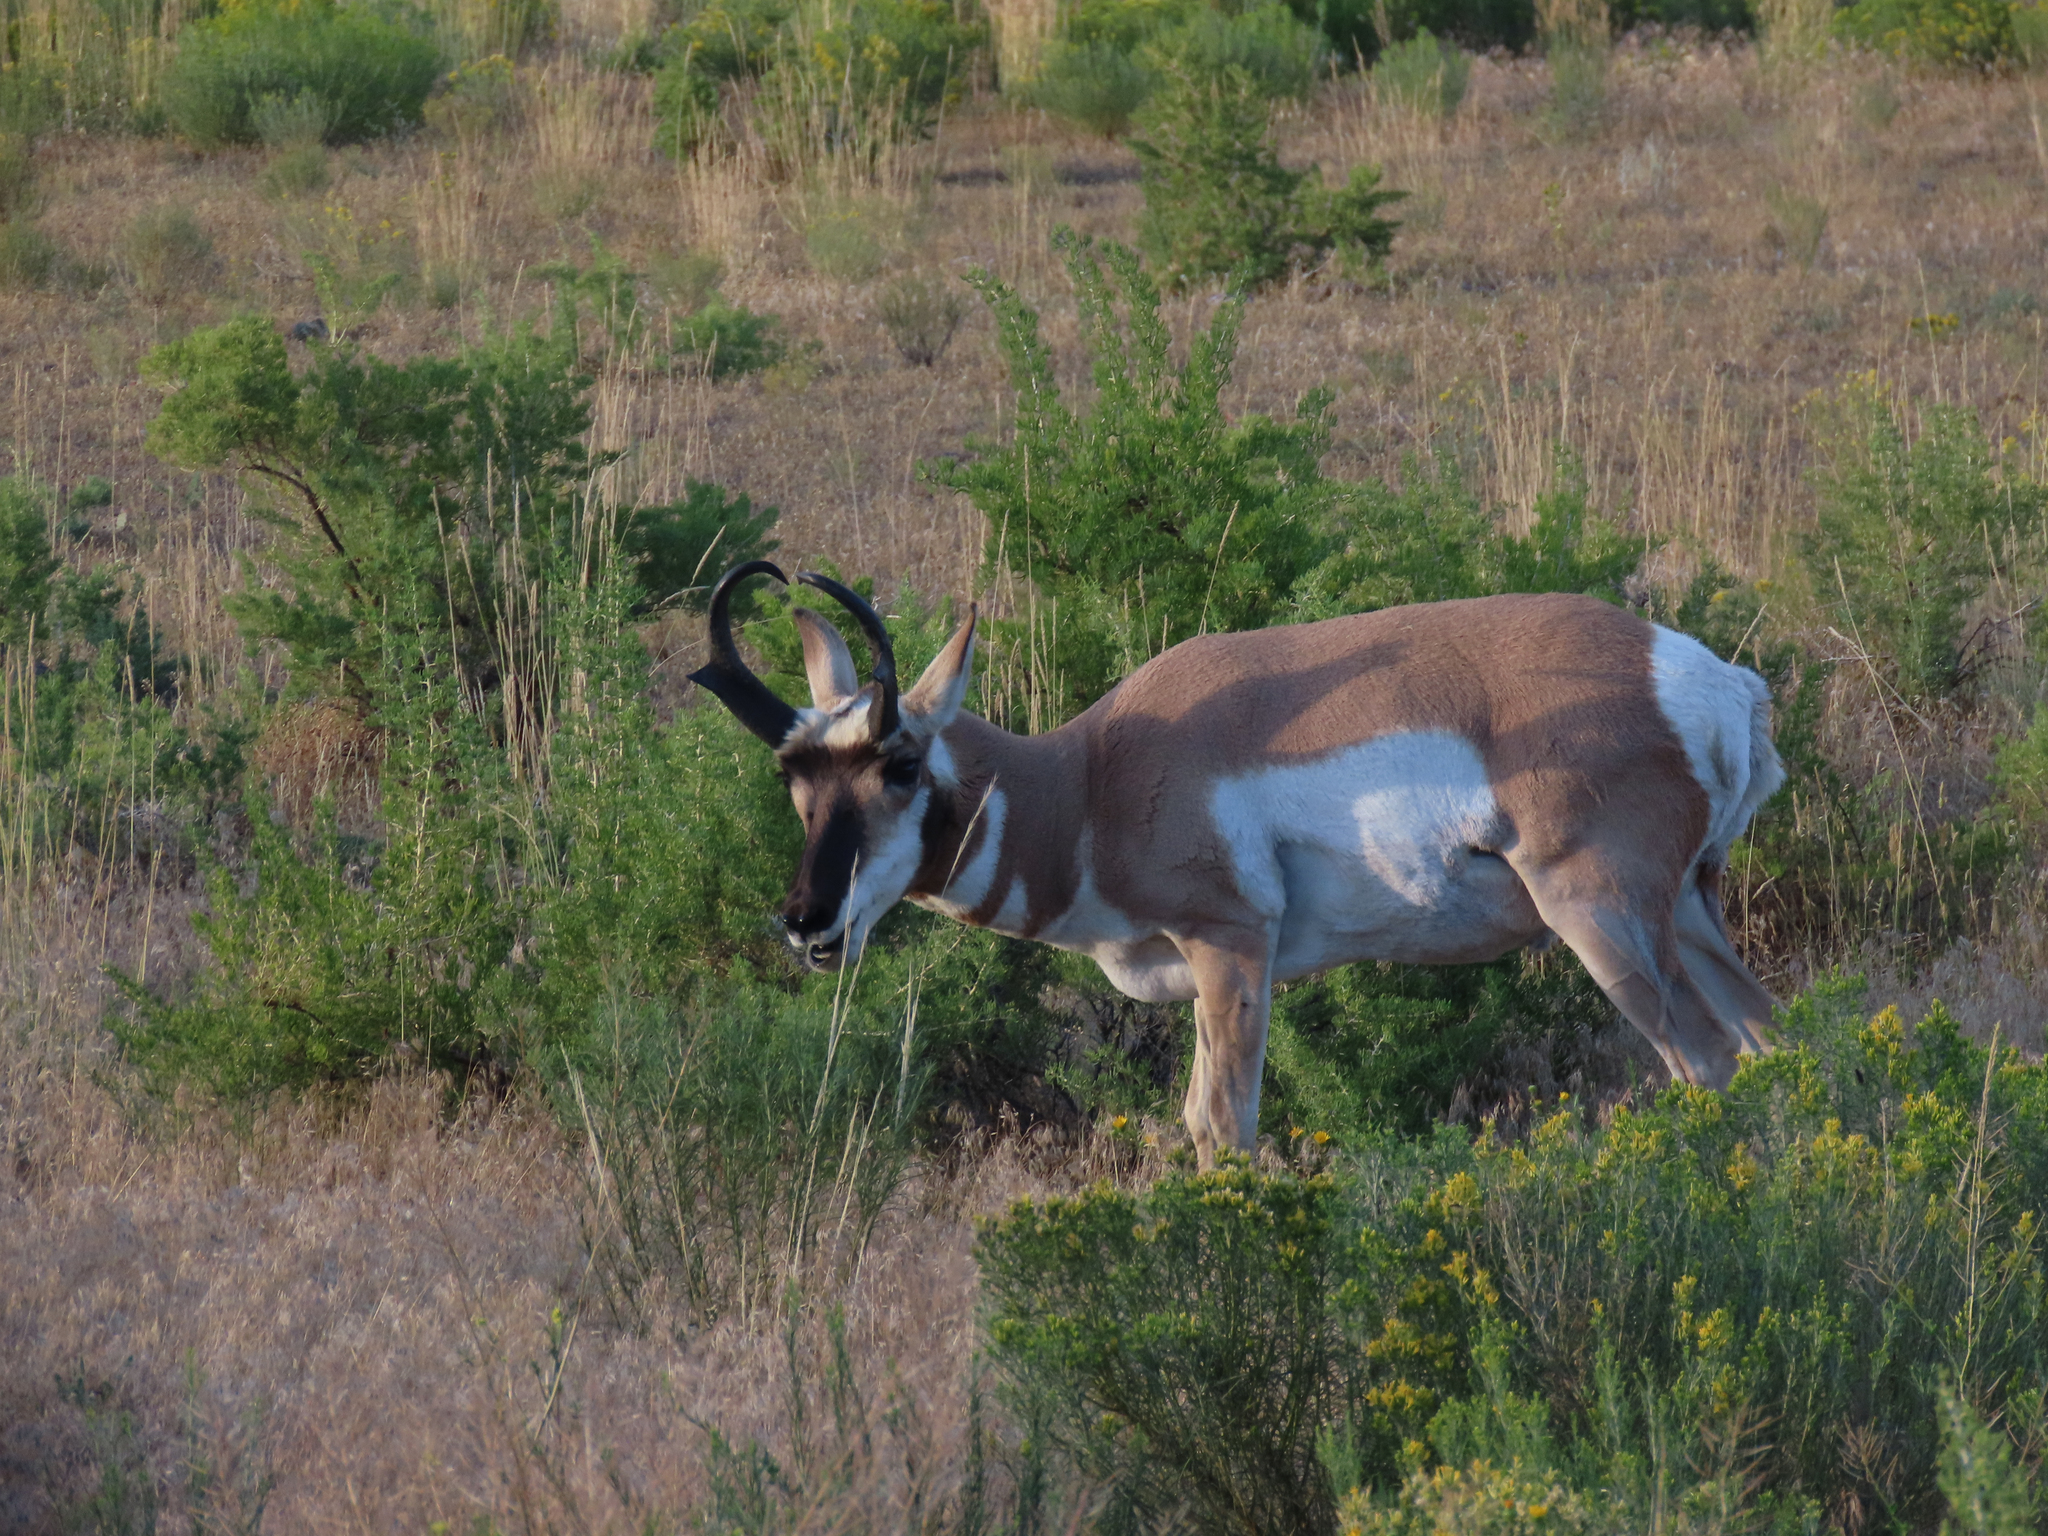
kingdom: Animalia
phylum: Chordata
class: Mammalia
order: Artiodactyla
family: Antilocapridae
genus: Antilocapra
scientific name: Antilocapra americana
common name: Pronghorn
